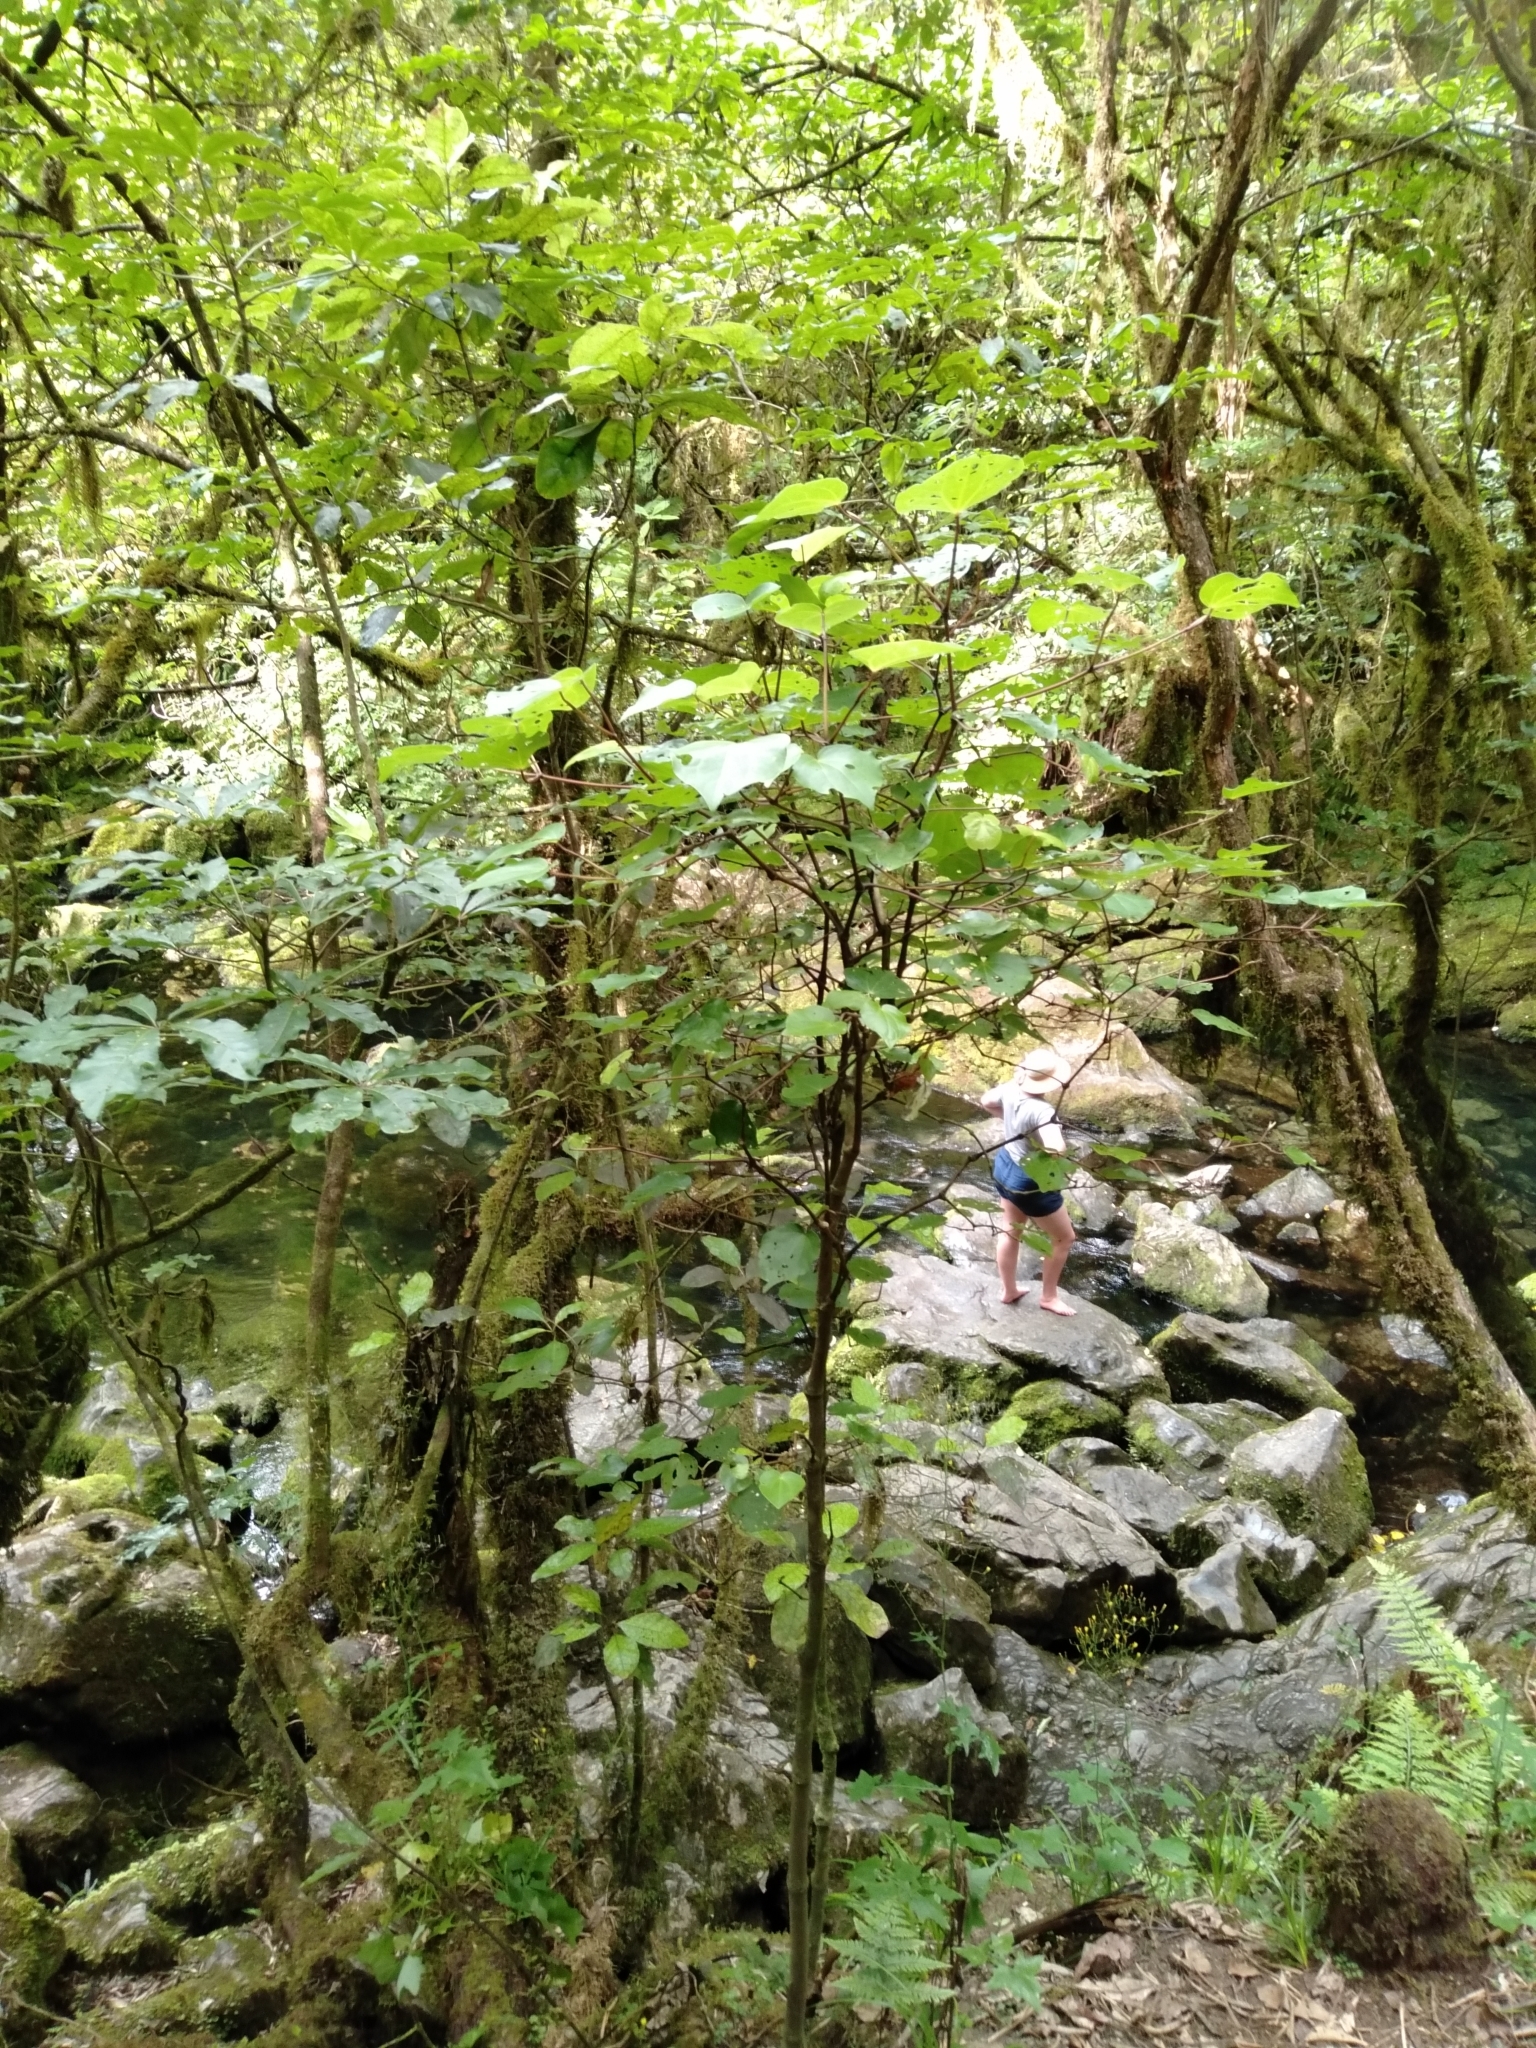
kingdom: Plantae
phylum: Tracheophyta
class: Magnoliopsida
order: Piperales
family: Piperaceae
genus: Macropiper
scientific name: Macropiper excelsum
